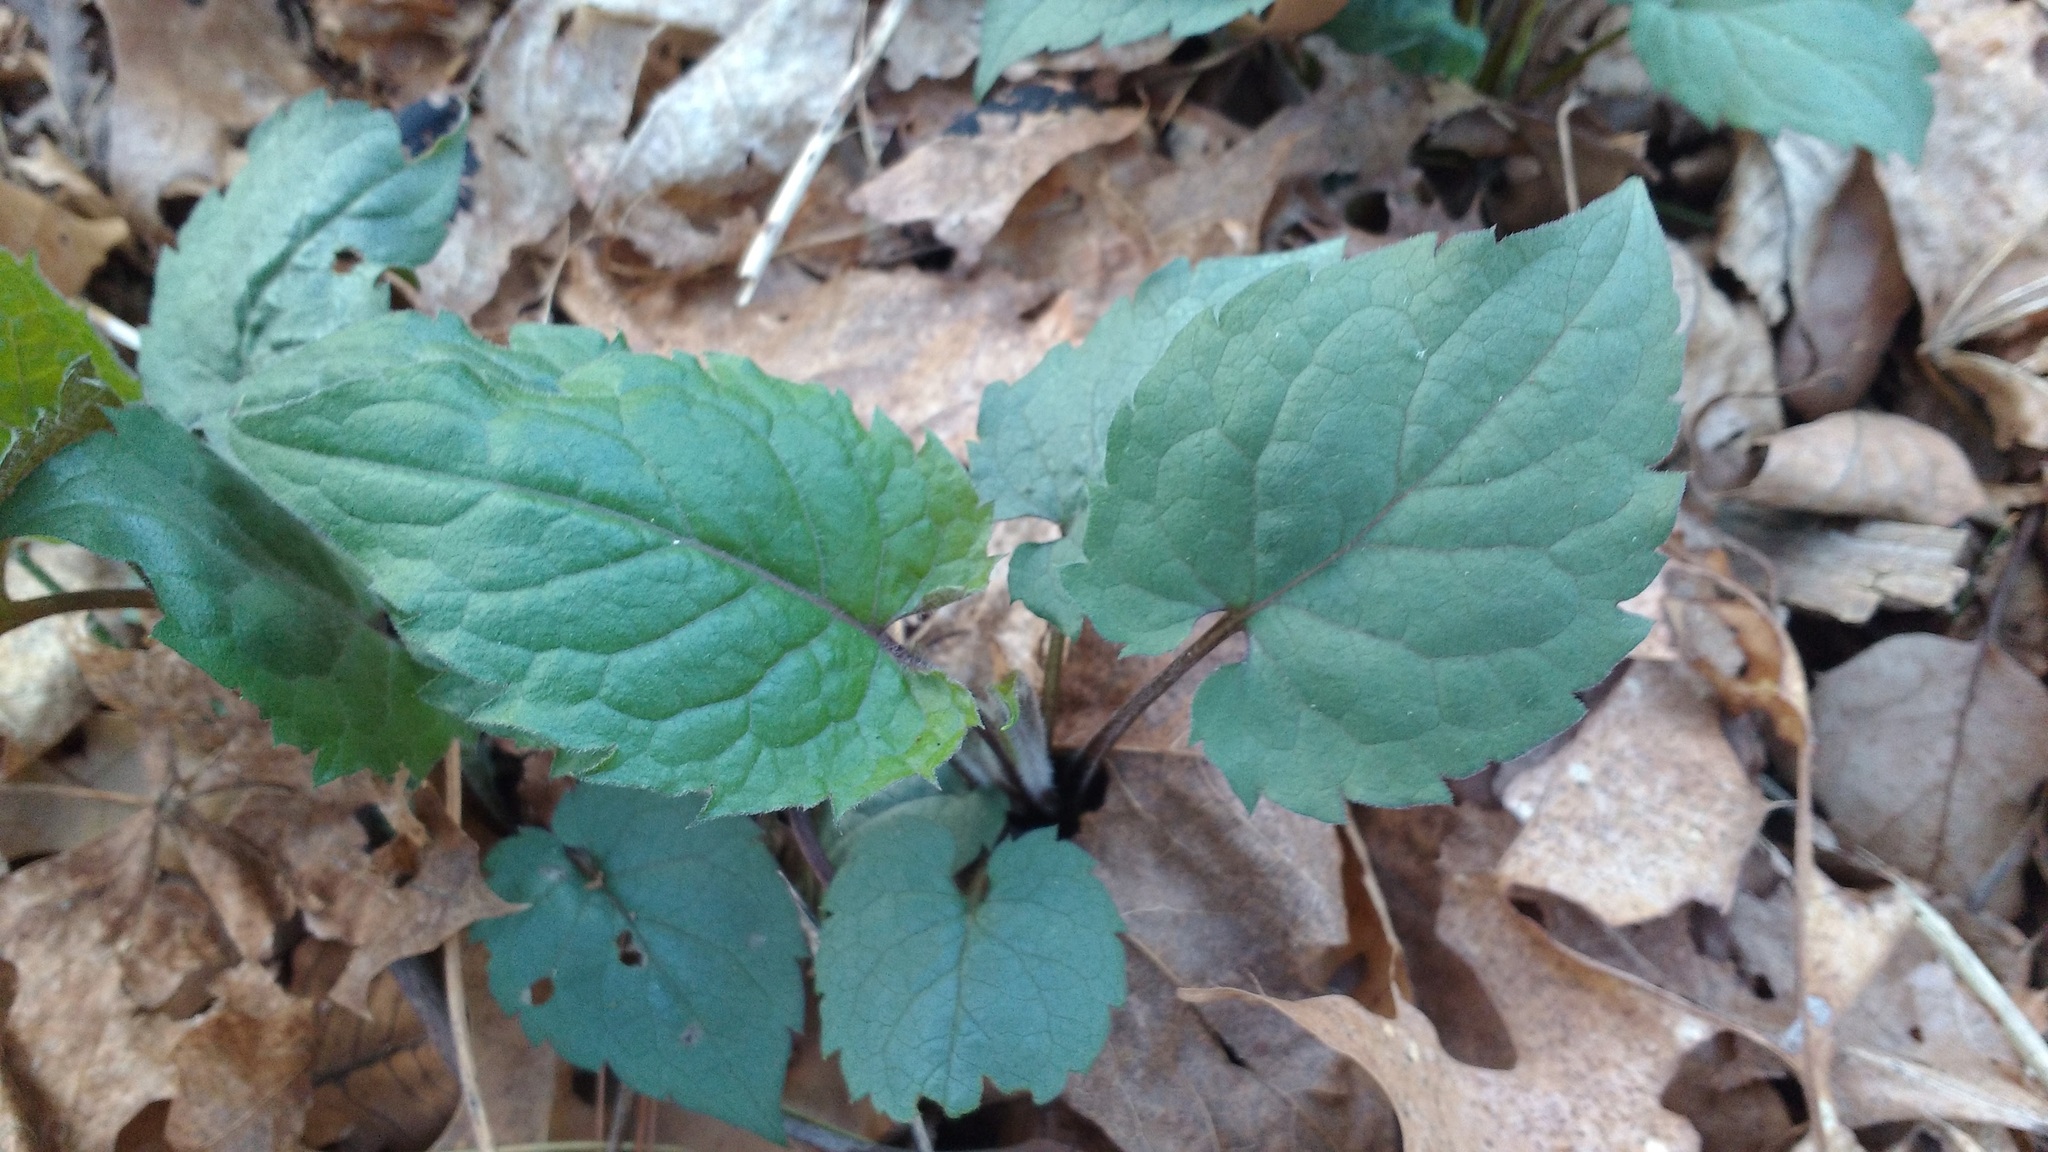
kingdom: Plantae
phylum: Tracheophyta
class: Magnoliopsida
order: Asterales
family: Asteraceae
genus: Eurybia
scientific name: Eurybia divaricata
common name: White wood aster
